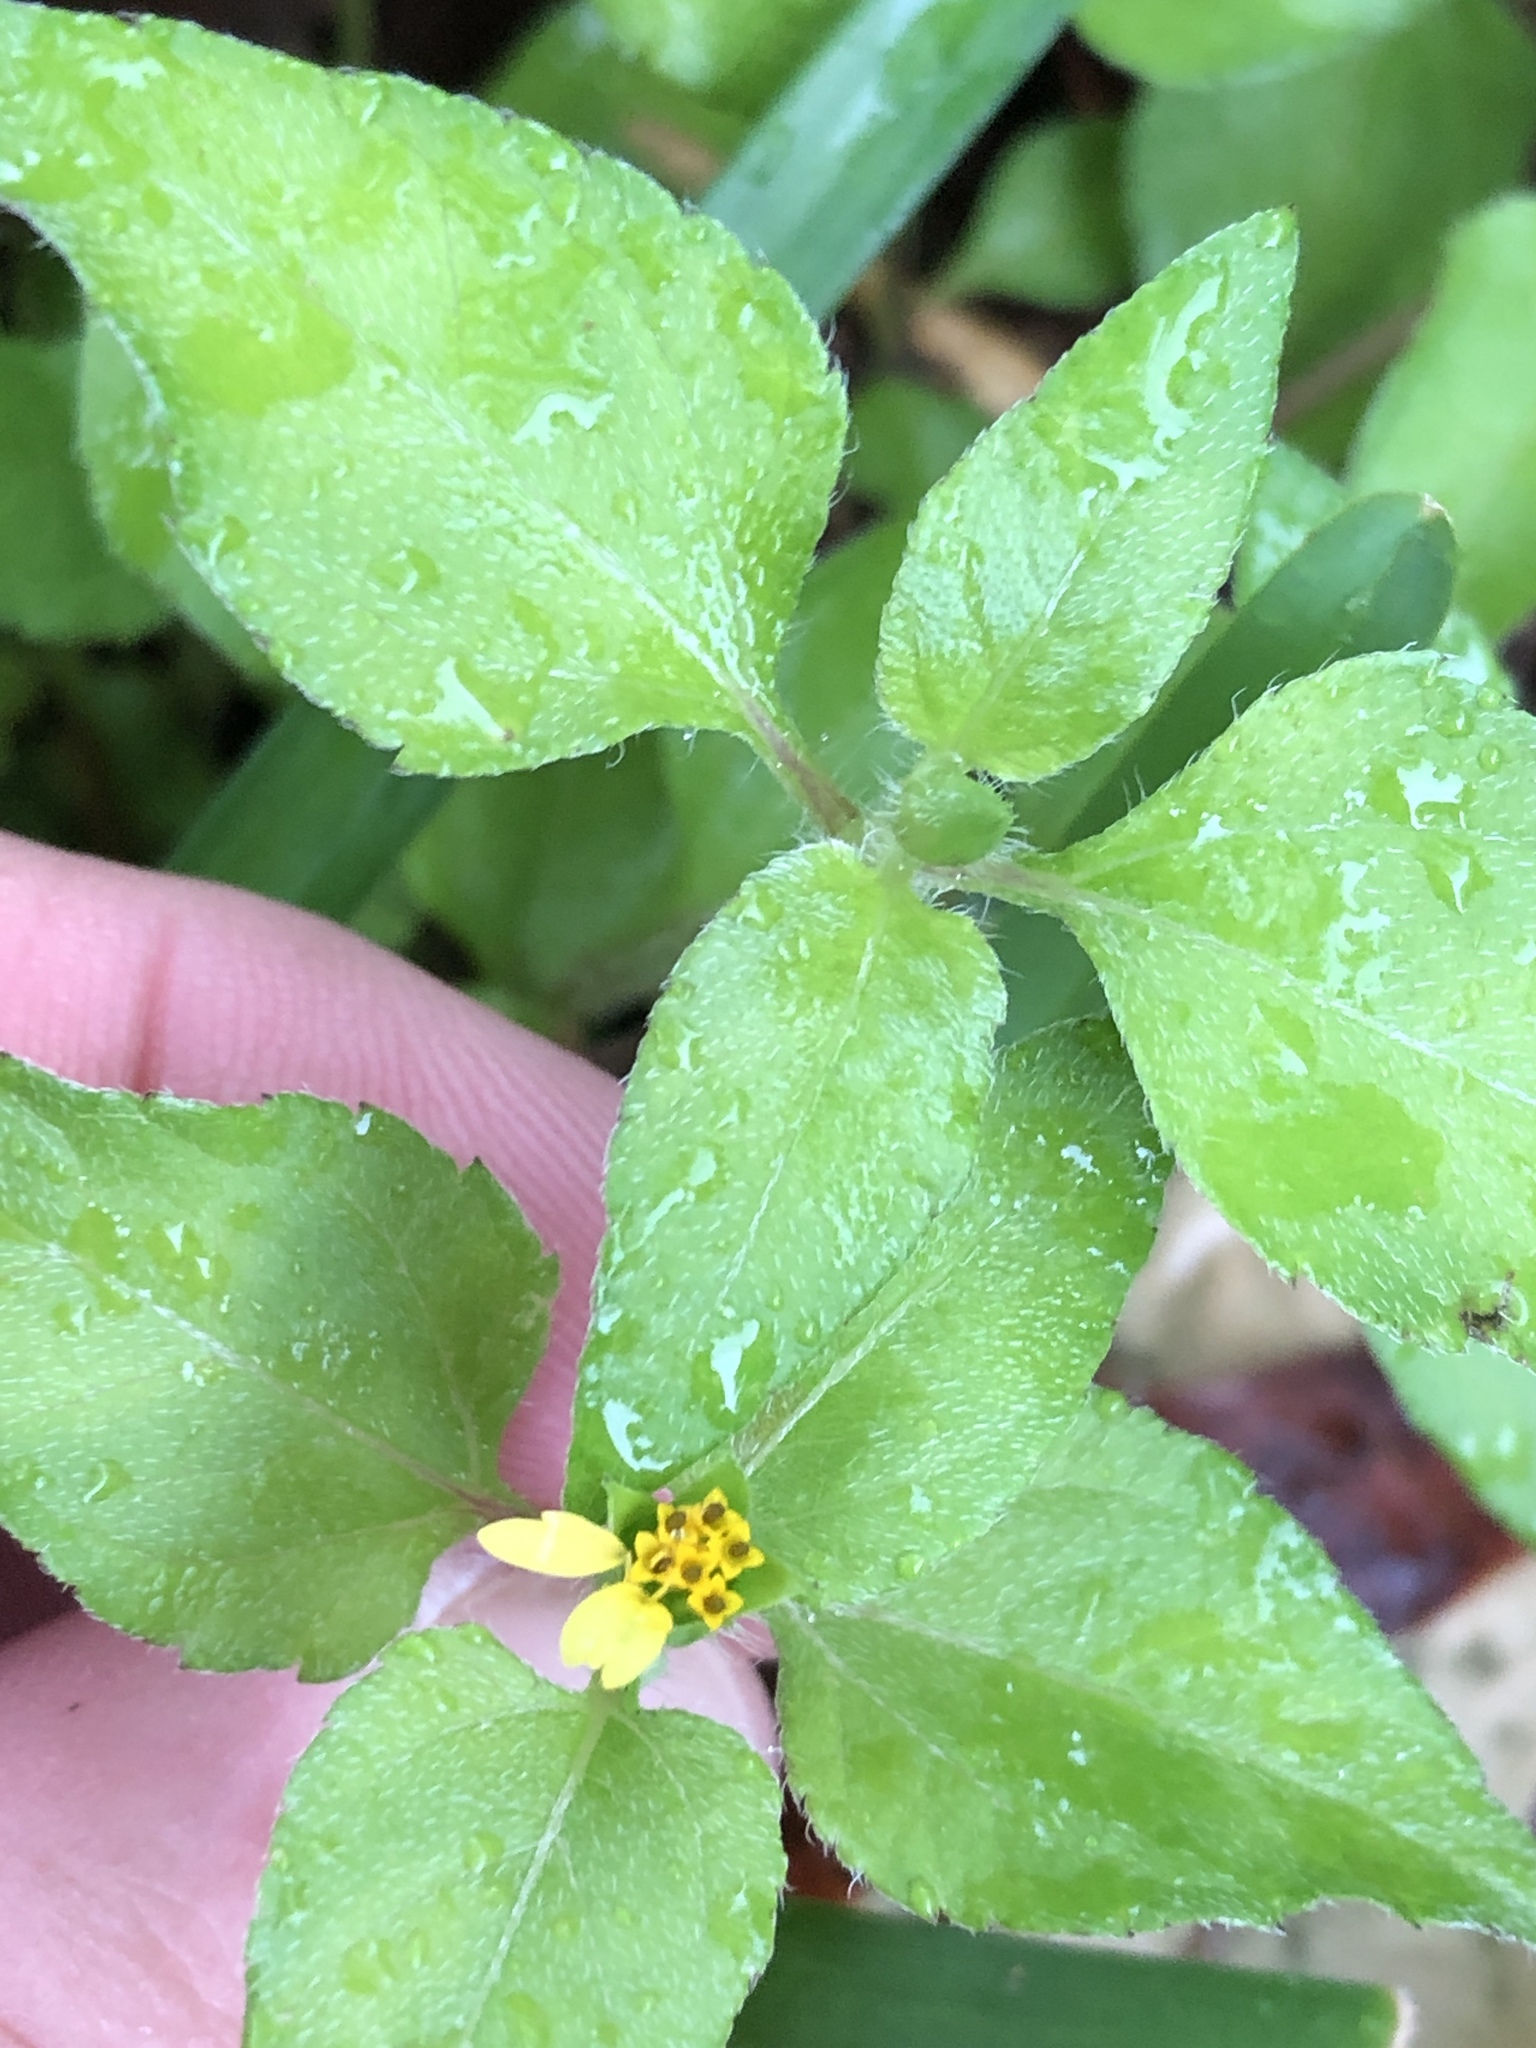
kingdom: Plantae
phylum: Tracheophyta
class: Magnoliopsida
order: Asterales
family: Asteraceae
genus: Calyptocarpus
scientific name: Calyptocarpus vialis
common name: Straggler daisy
